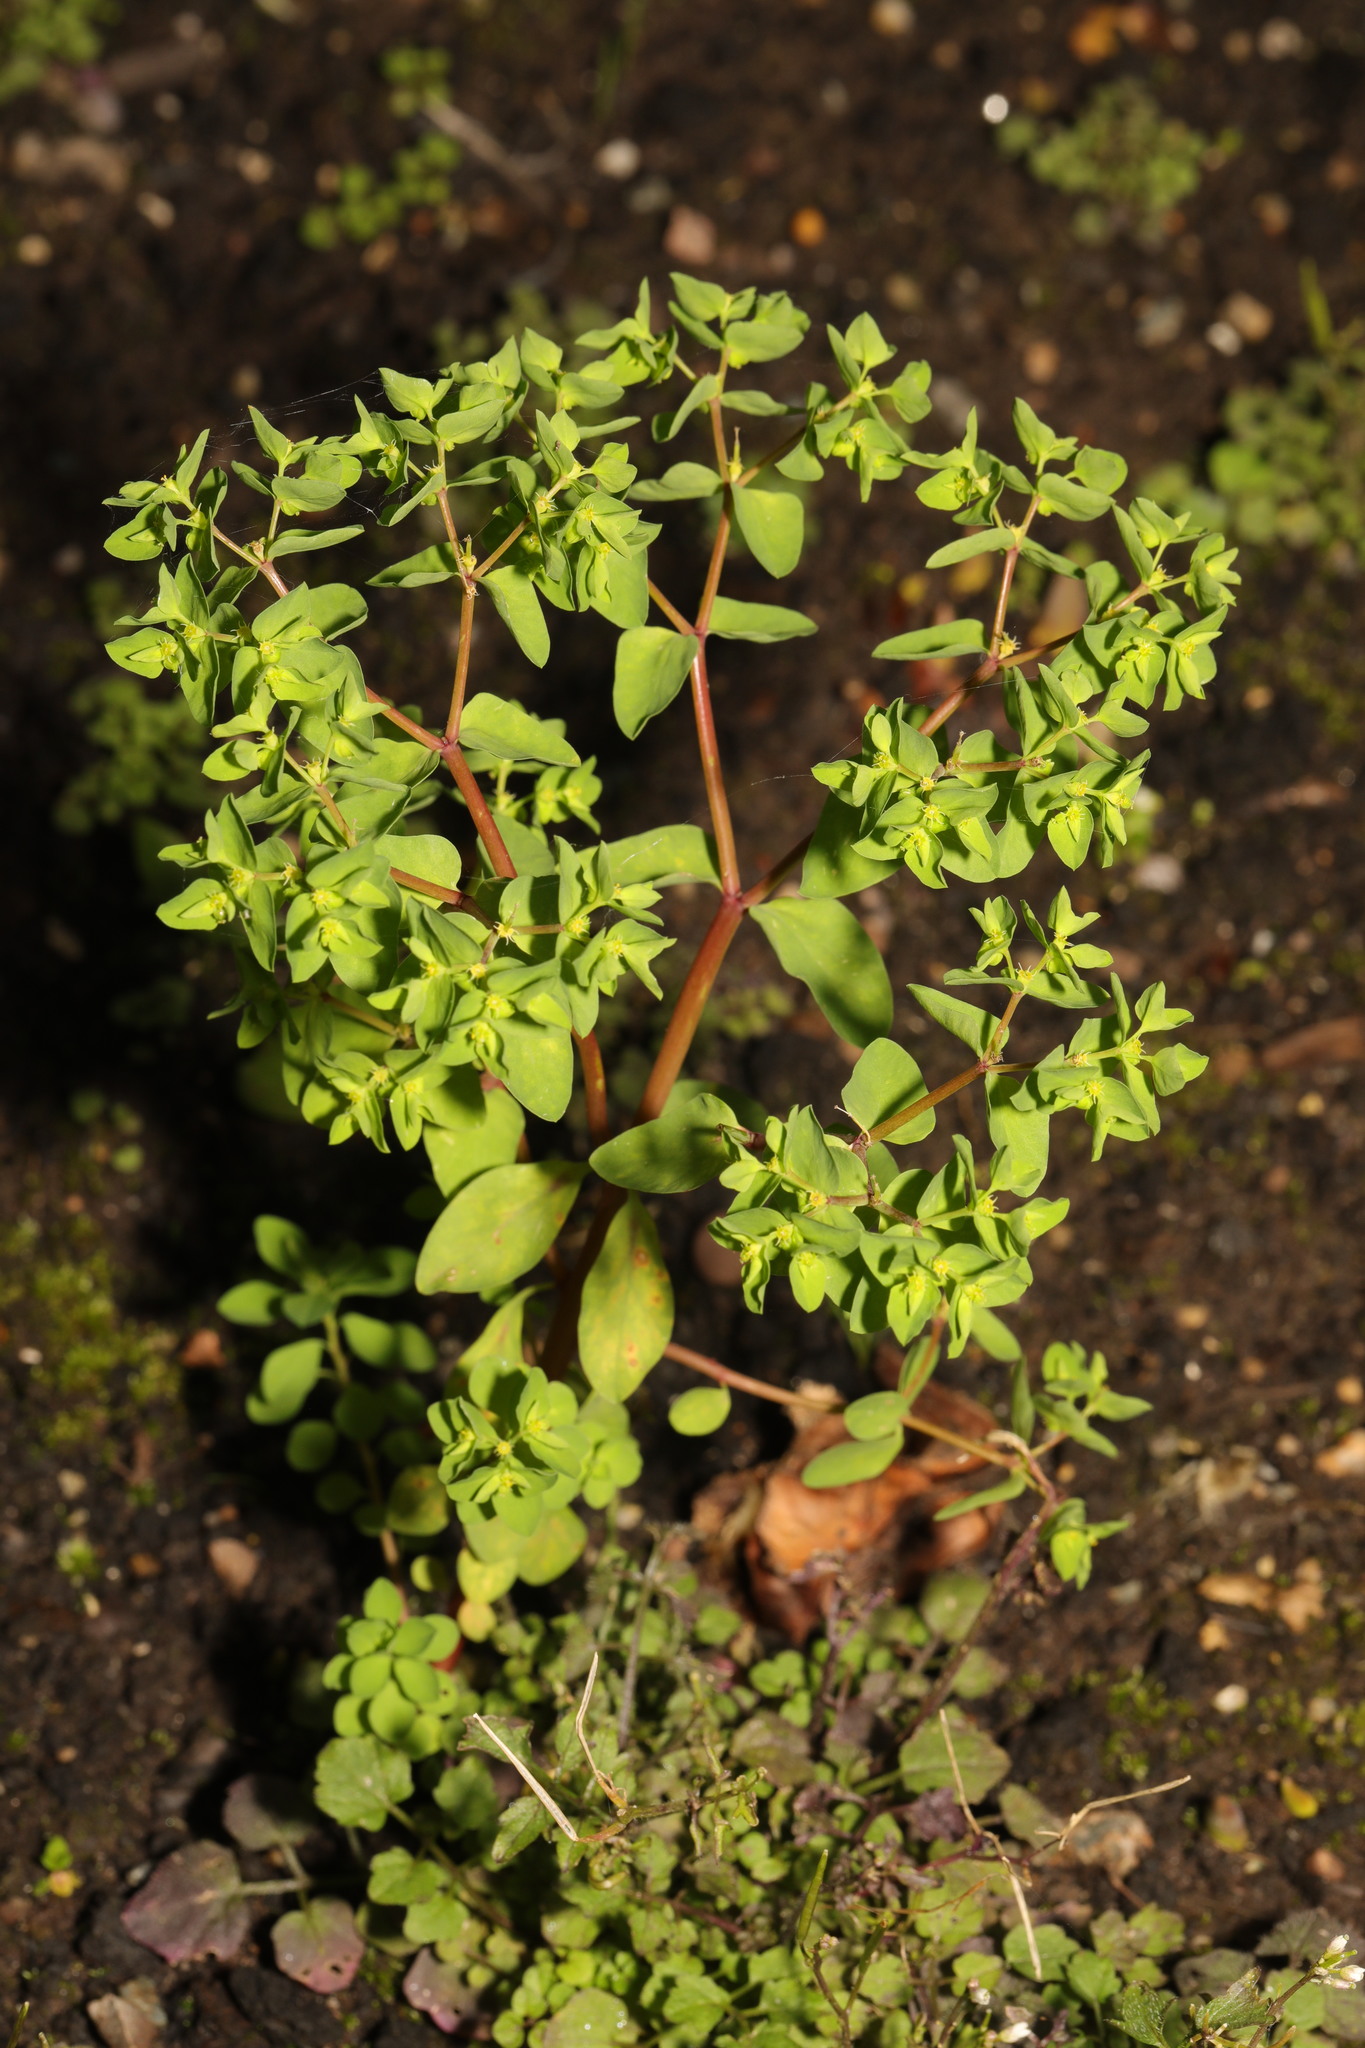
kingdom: Plantae
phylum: Tracheophyta
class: Magnoliopsida
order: Malpighiales
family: Euphorbiaceae
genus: Euphorbia
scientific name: Euphorbia peplus
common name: Petty spurge
